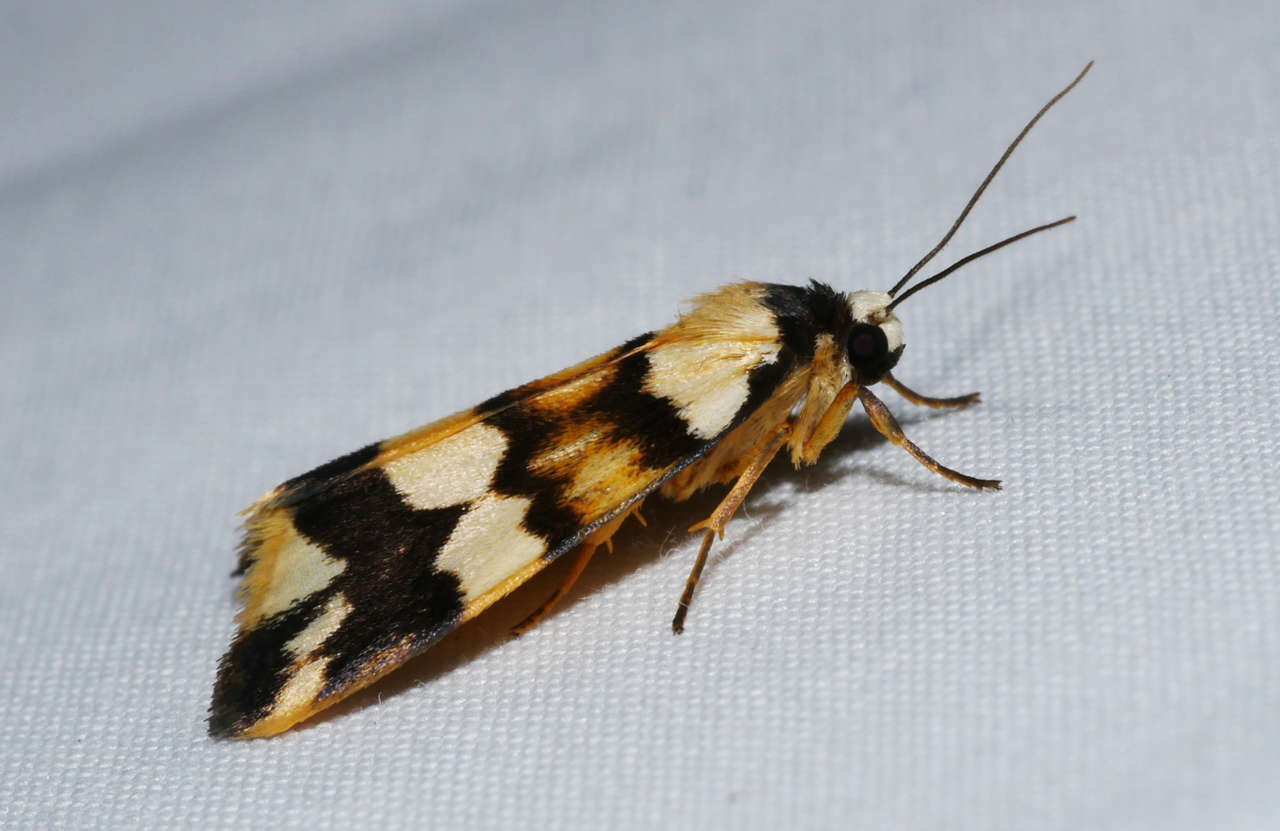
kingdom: Animalia
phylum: Arthropoda
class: Insecta
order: Lepidoptera
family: Erebidae
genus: Termessa
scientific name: Termessa gratiosa
